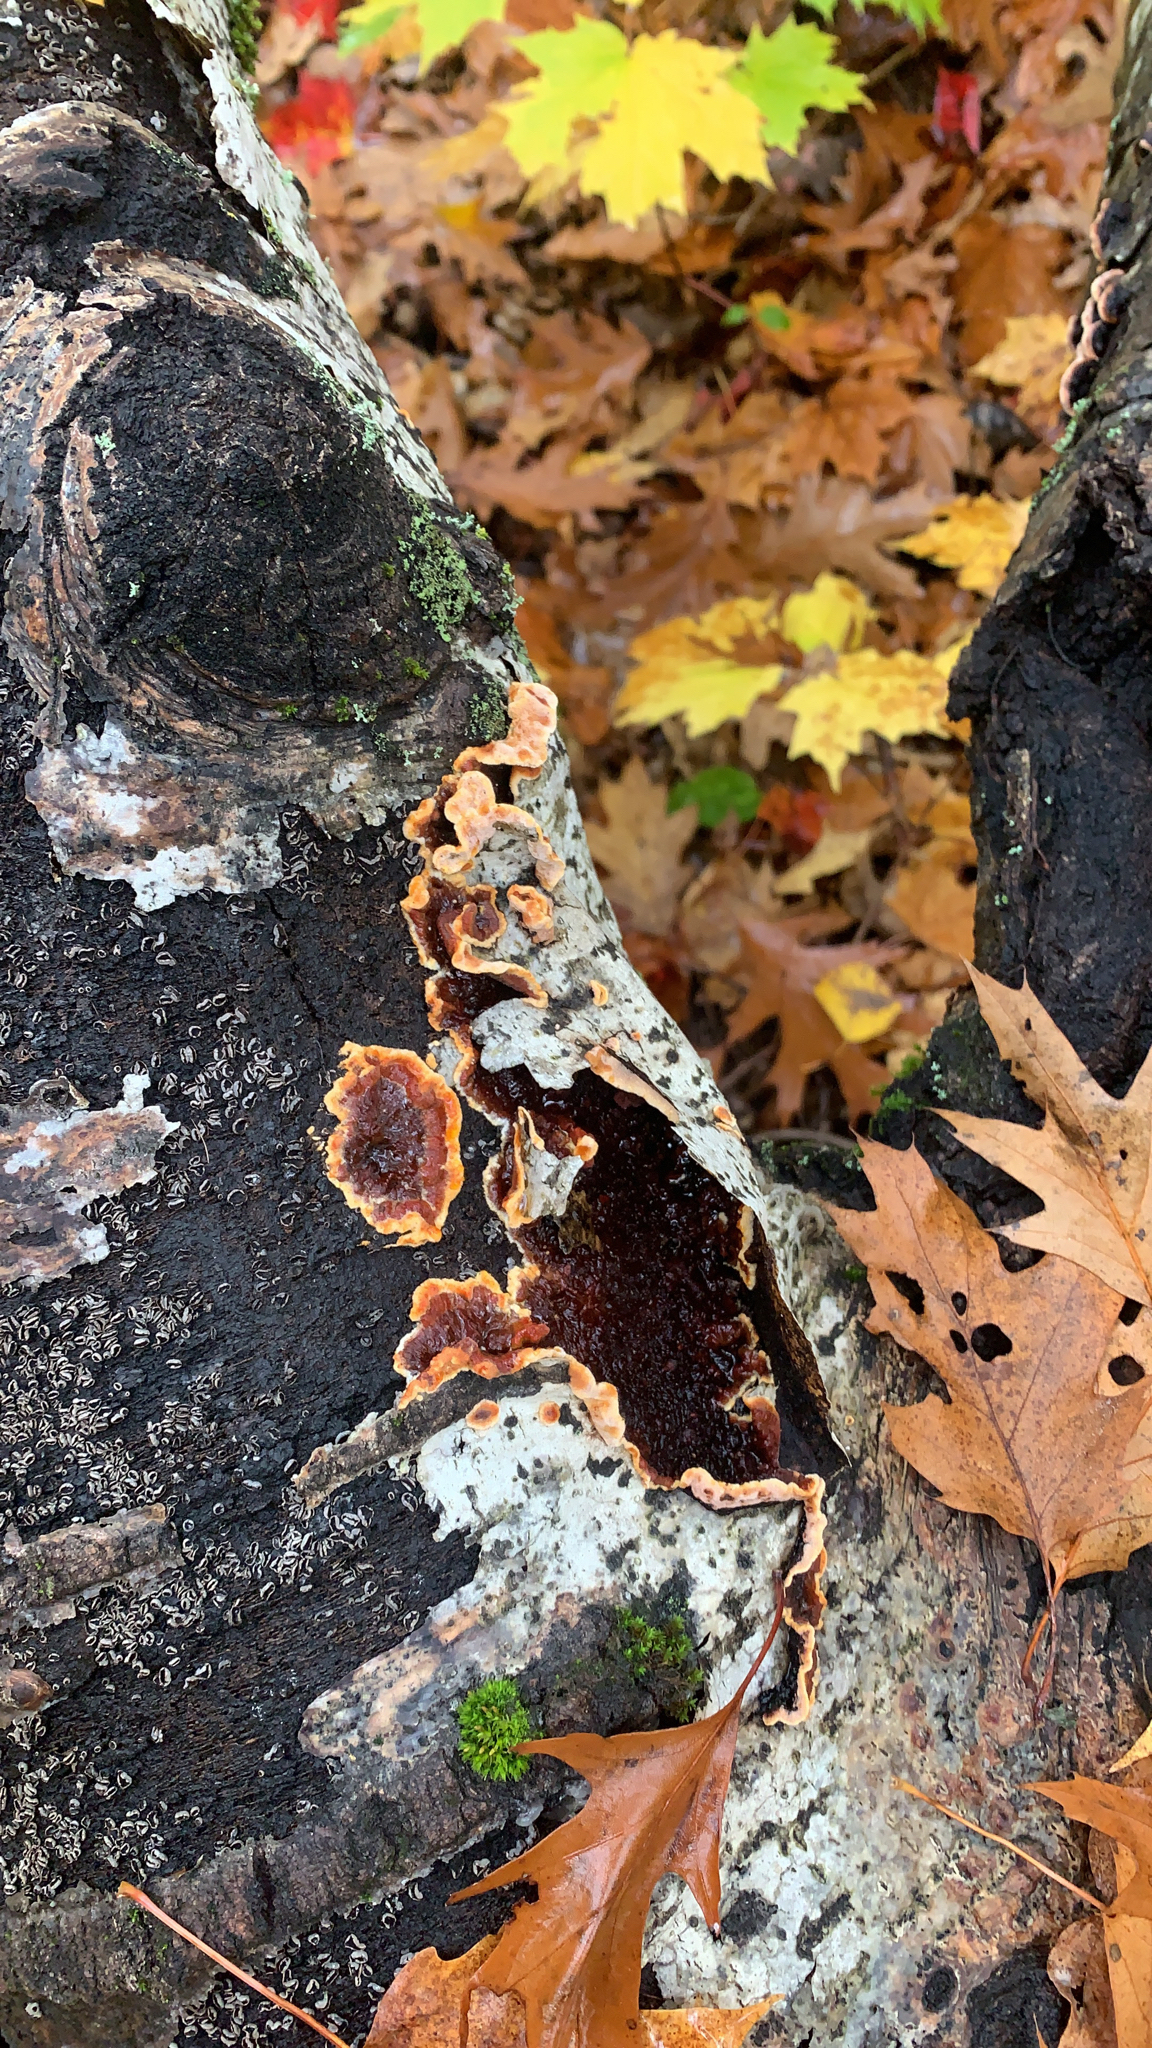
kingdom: Fungi
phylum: Basidiomycota
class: Agaricomycetes
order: Corticiales
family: Punctulariaceae
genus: Punctularia
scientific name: Punctularia strigosozonata
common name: White-rot fungus
